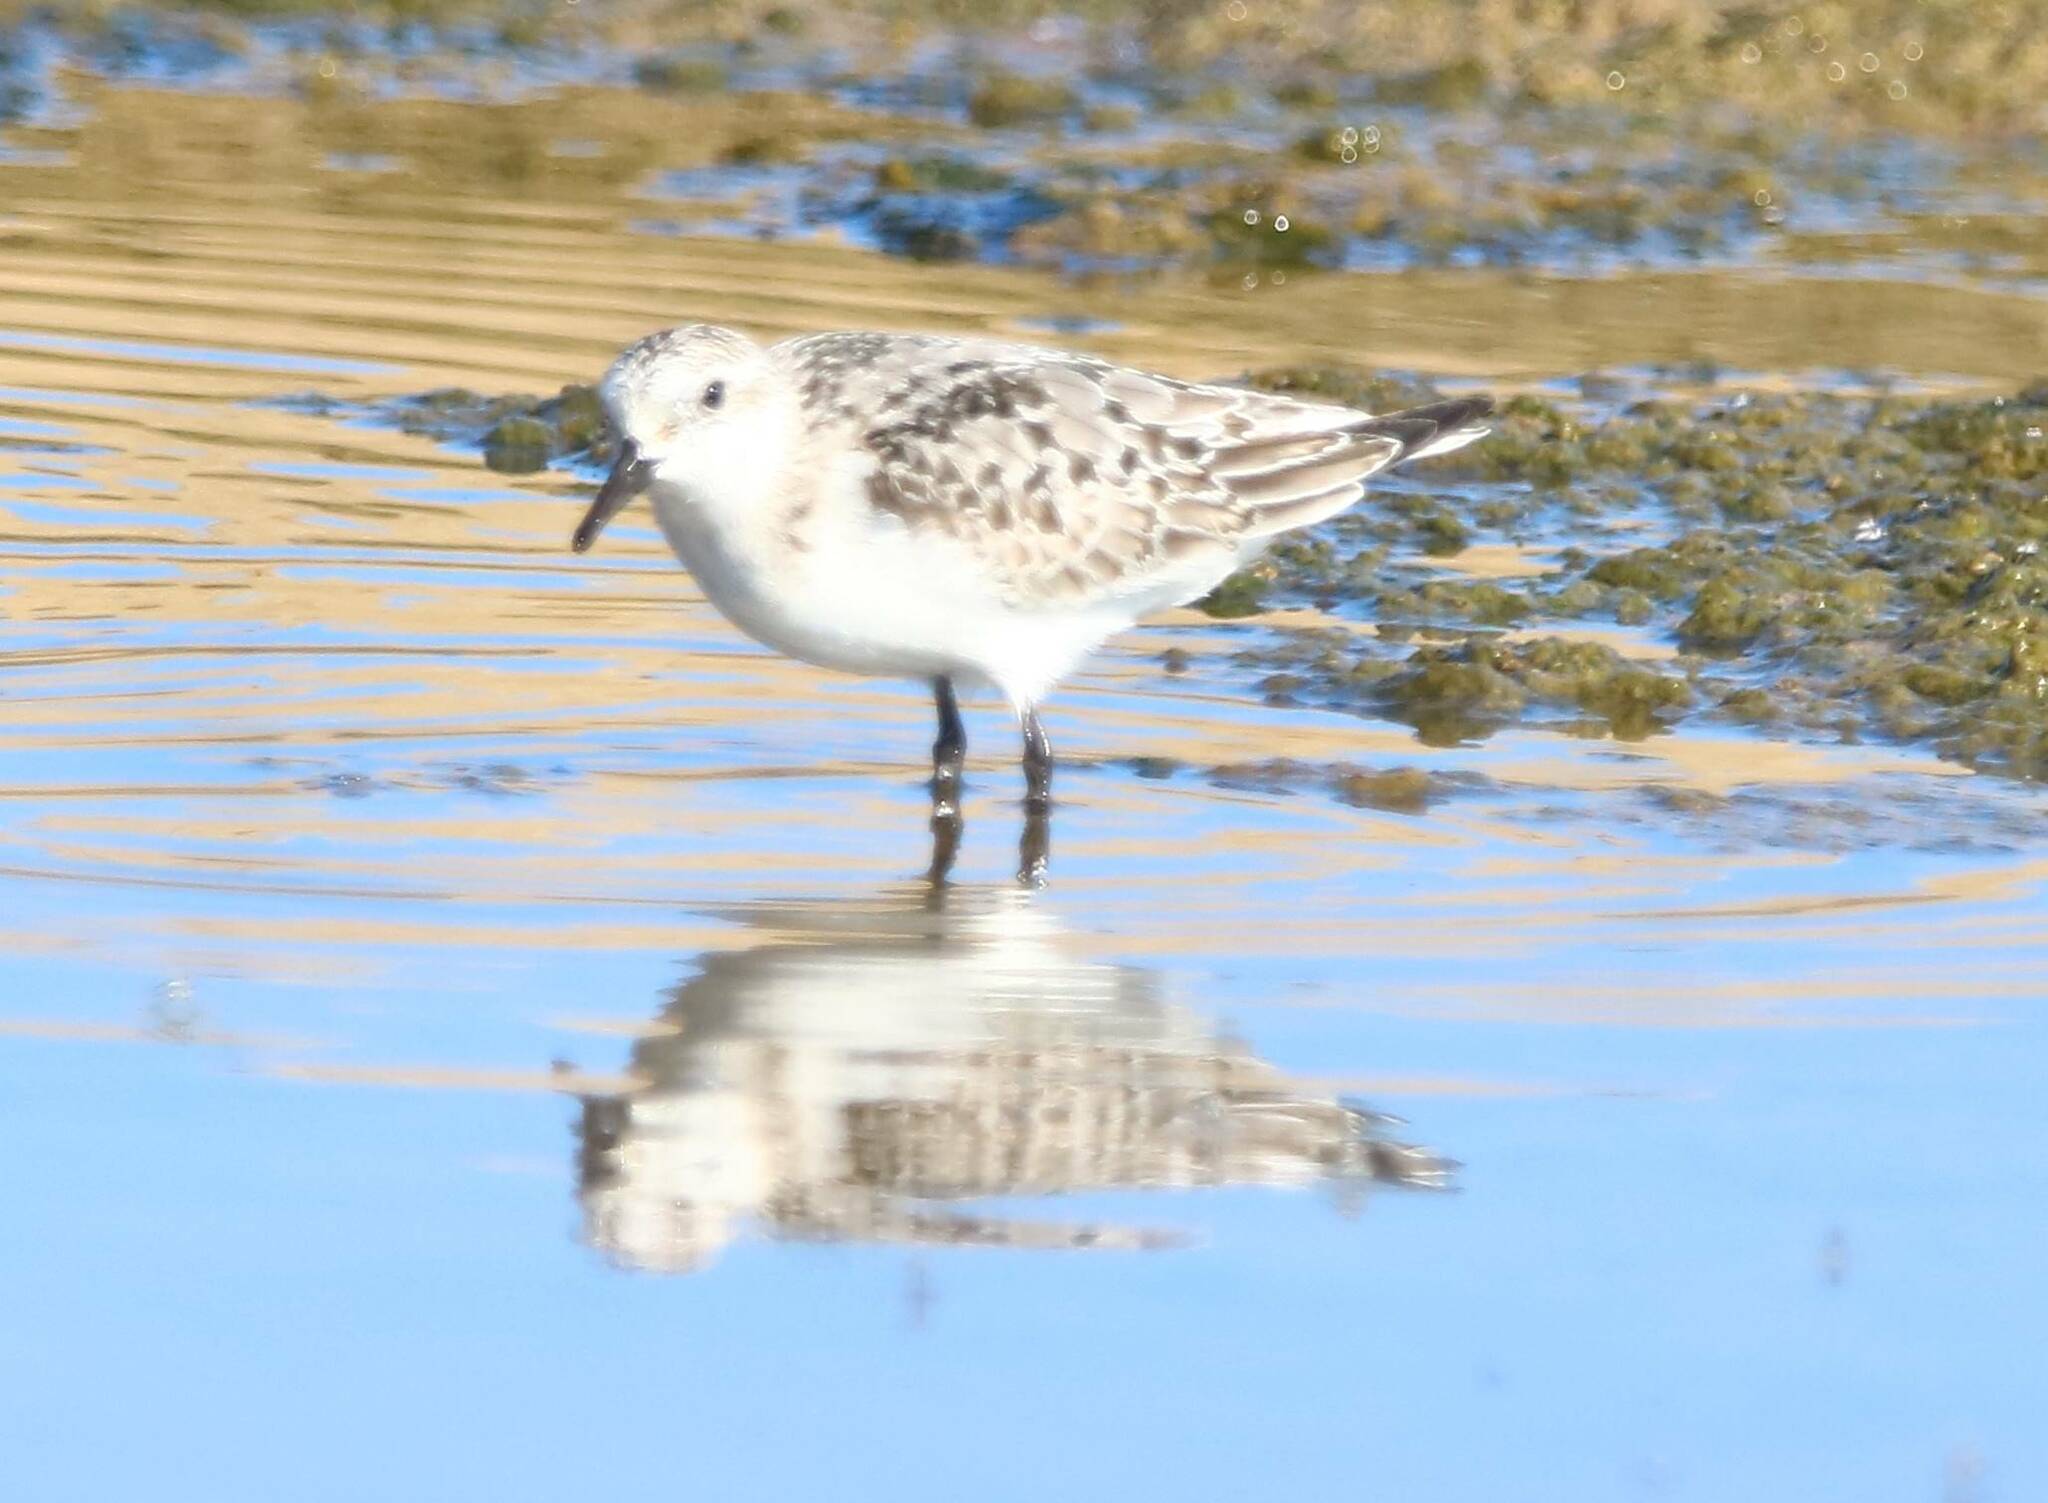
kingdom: Animalia
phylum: Chordata
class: Aves
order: Charadriiformes
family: Scolopacidae
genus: Calidris
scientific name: Calidris alba
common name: Sanderling
